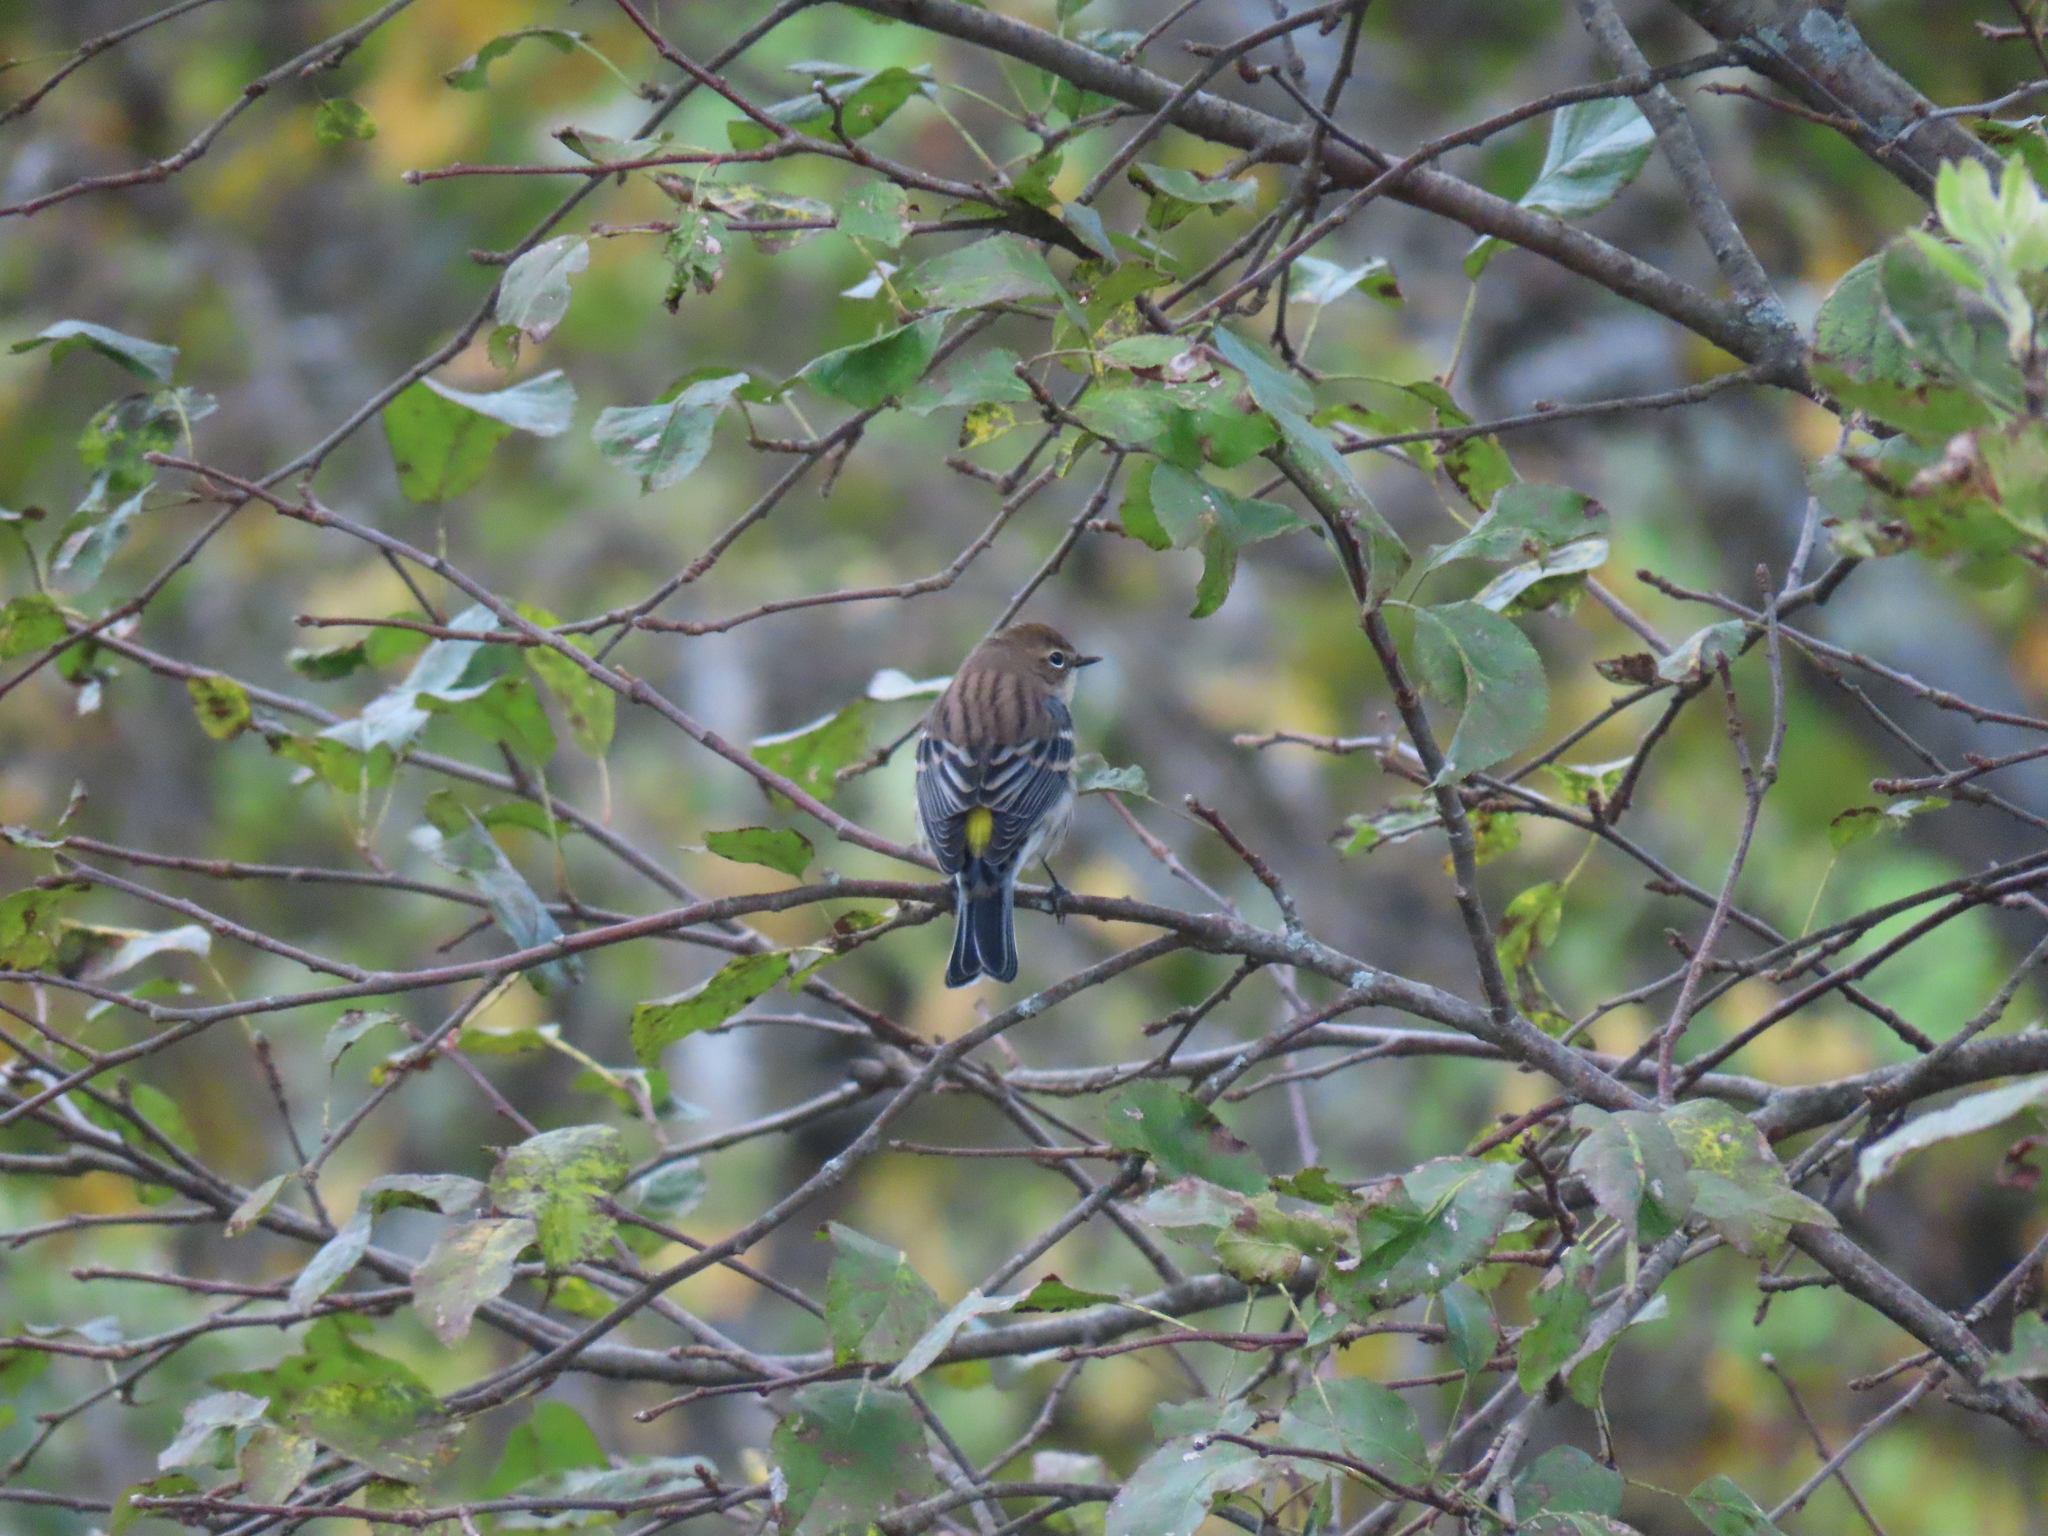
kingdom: Animalia
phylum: Chordata
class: Aves
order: Passeriformes
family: Parulidae
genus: Setophaga
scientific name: Setophaga coronata
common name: Myrtle warbler
